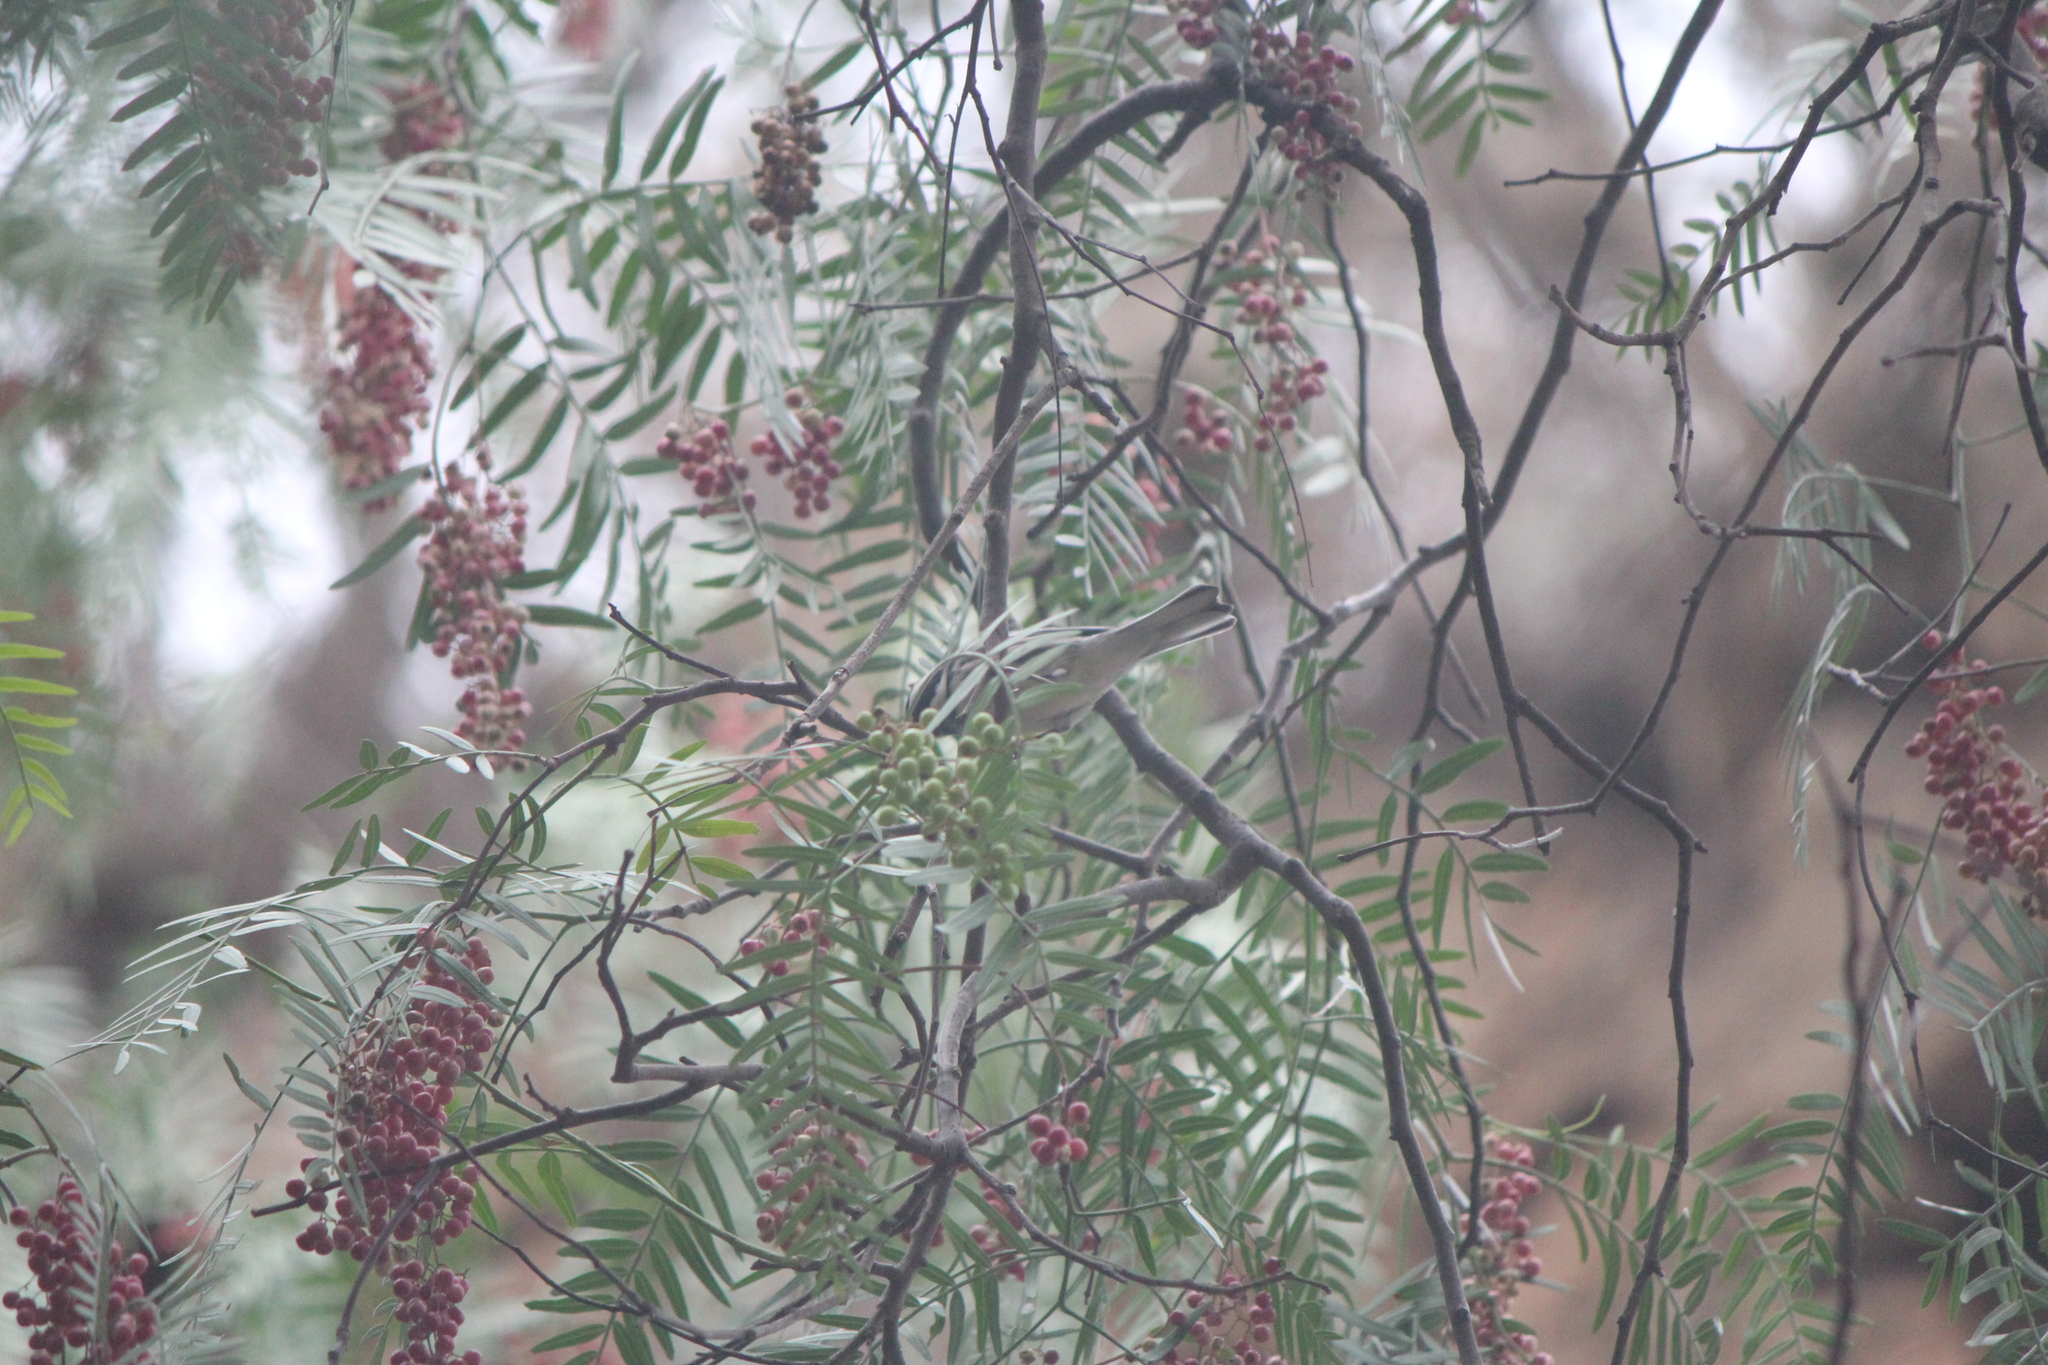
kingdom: Animalia
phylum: Chordata
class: Aves
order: Passeriformes
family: Parulidae
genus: Setophaga
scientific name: Setophaga nigrescens
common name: Black-throated gray warbler
